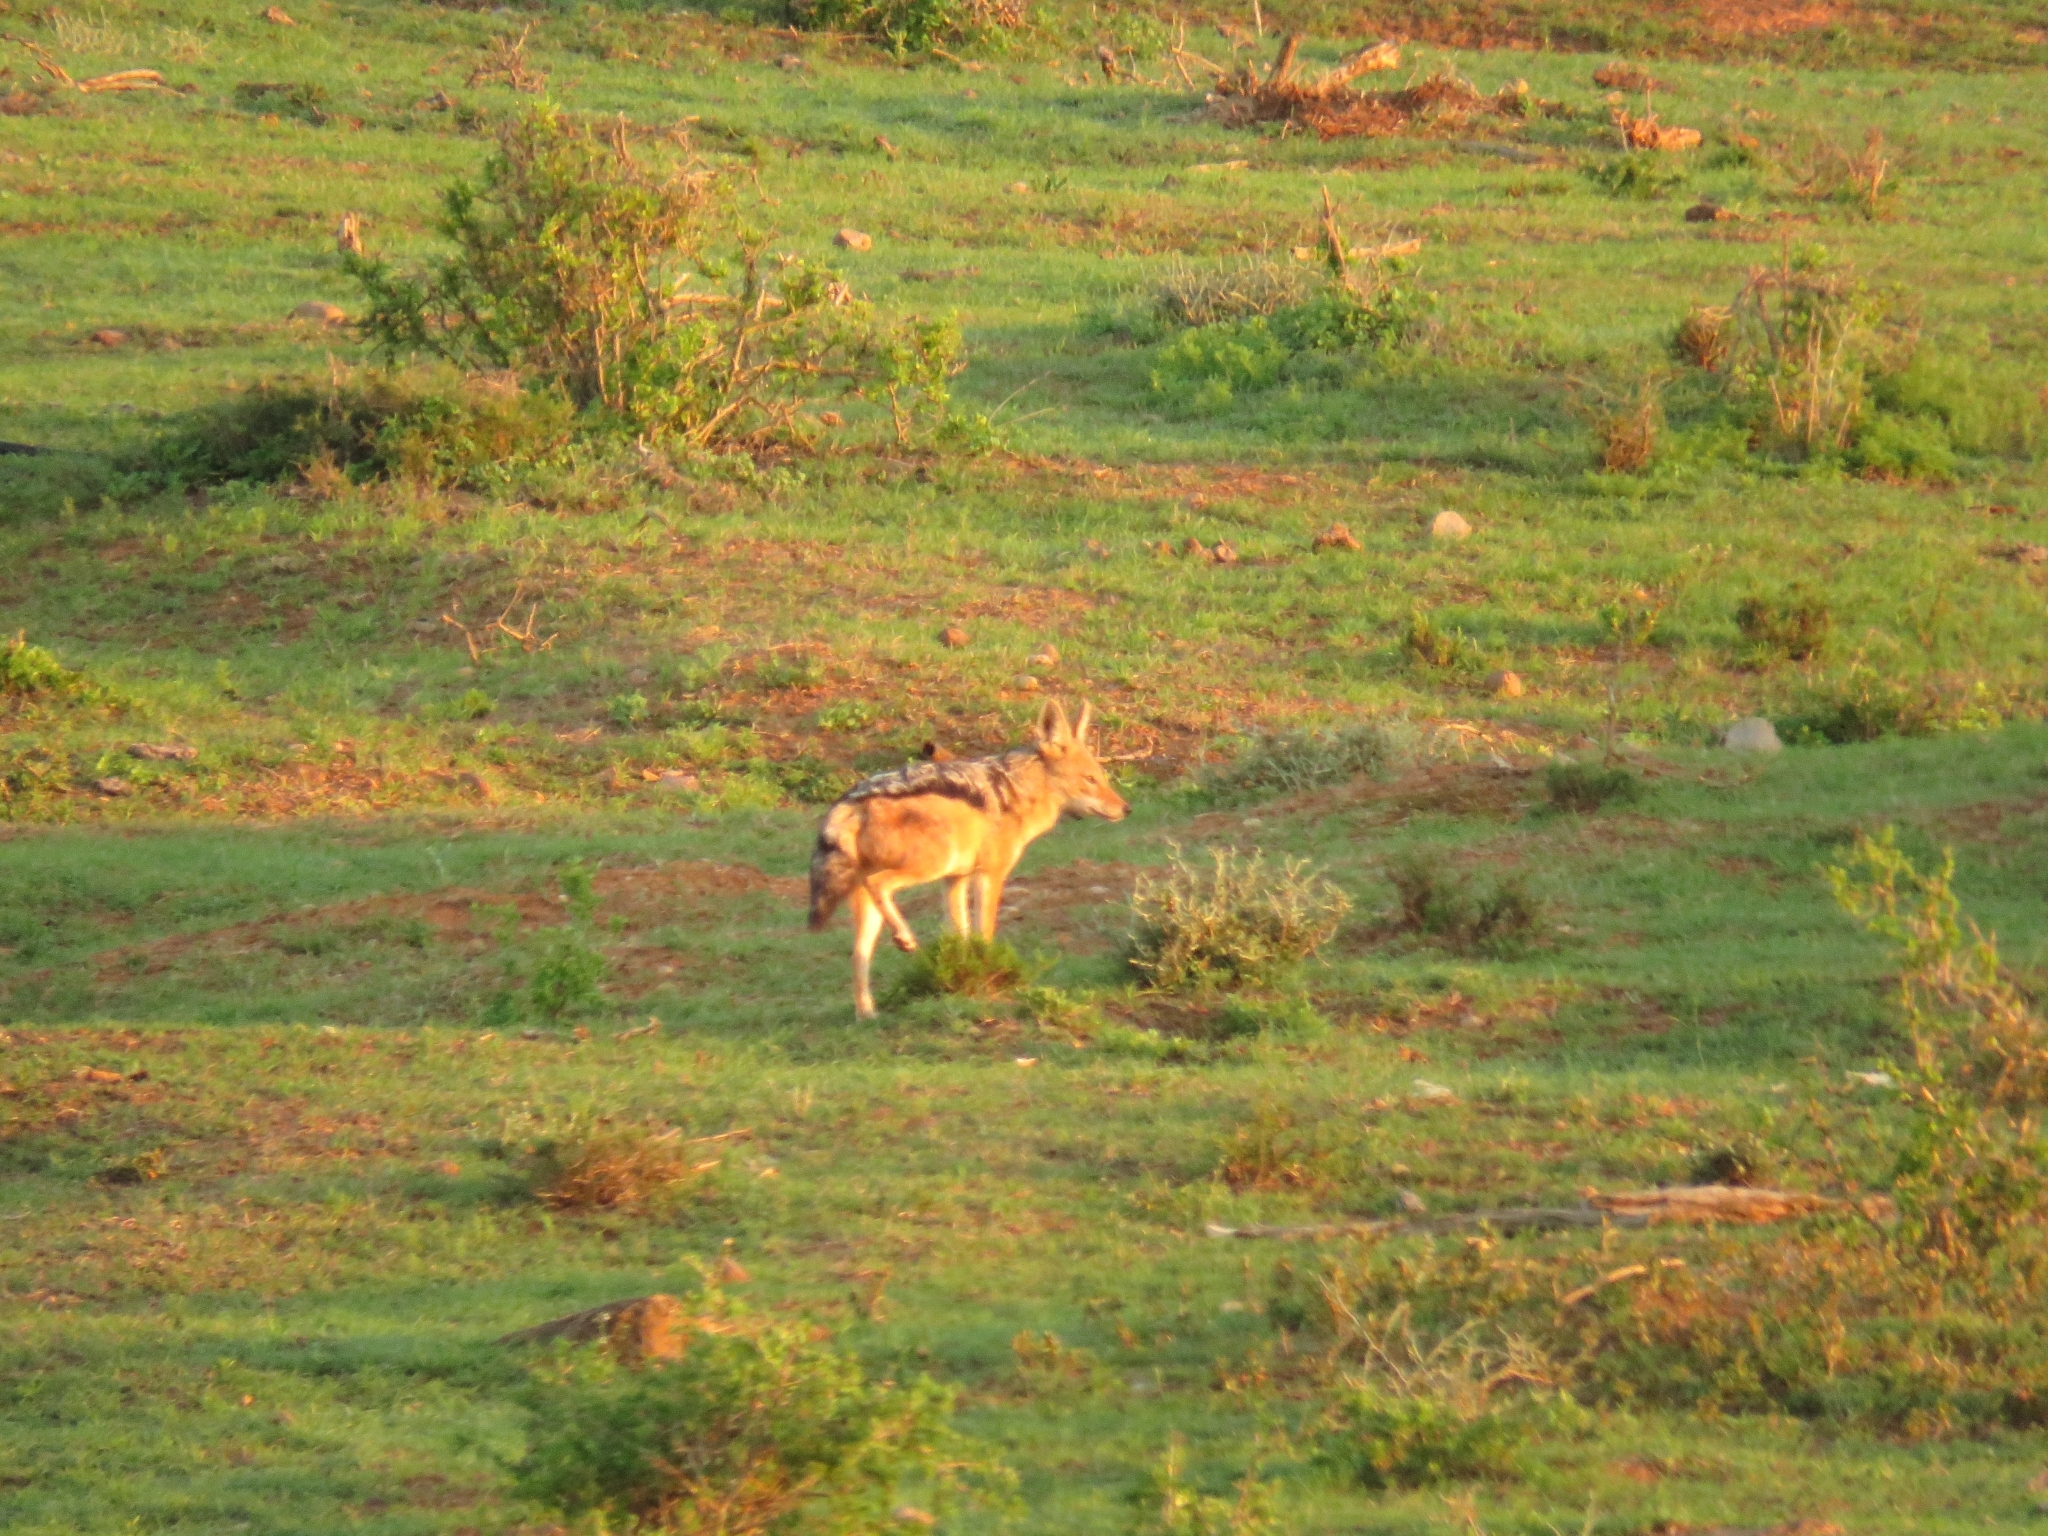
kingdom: Animalia
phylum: Chordata
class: Mammalia
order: Carnivora
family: Canidae
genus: Lupulella
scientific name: Lupulella
